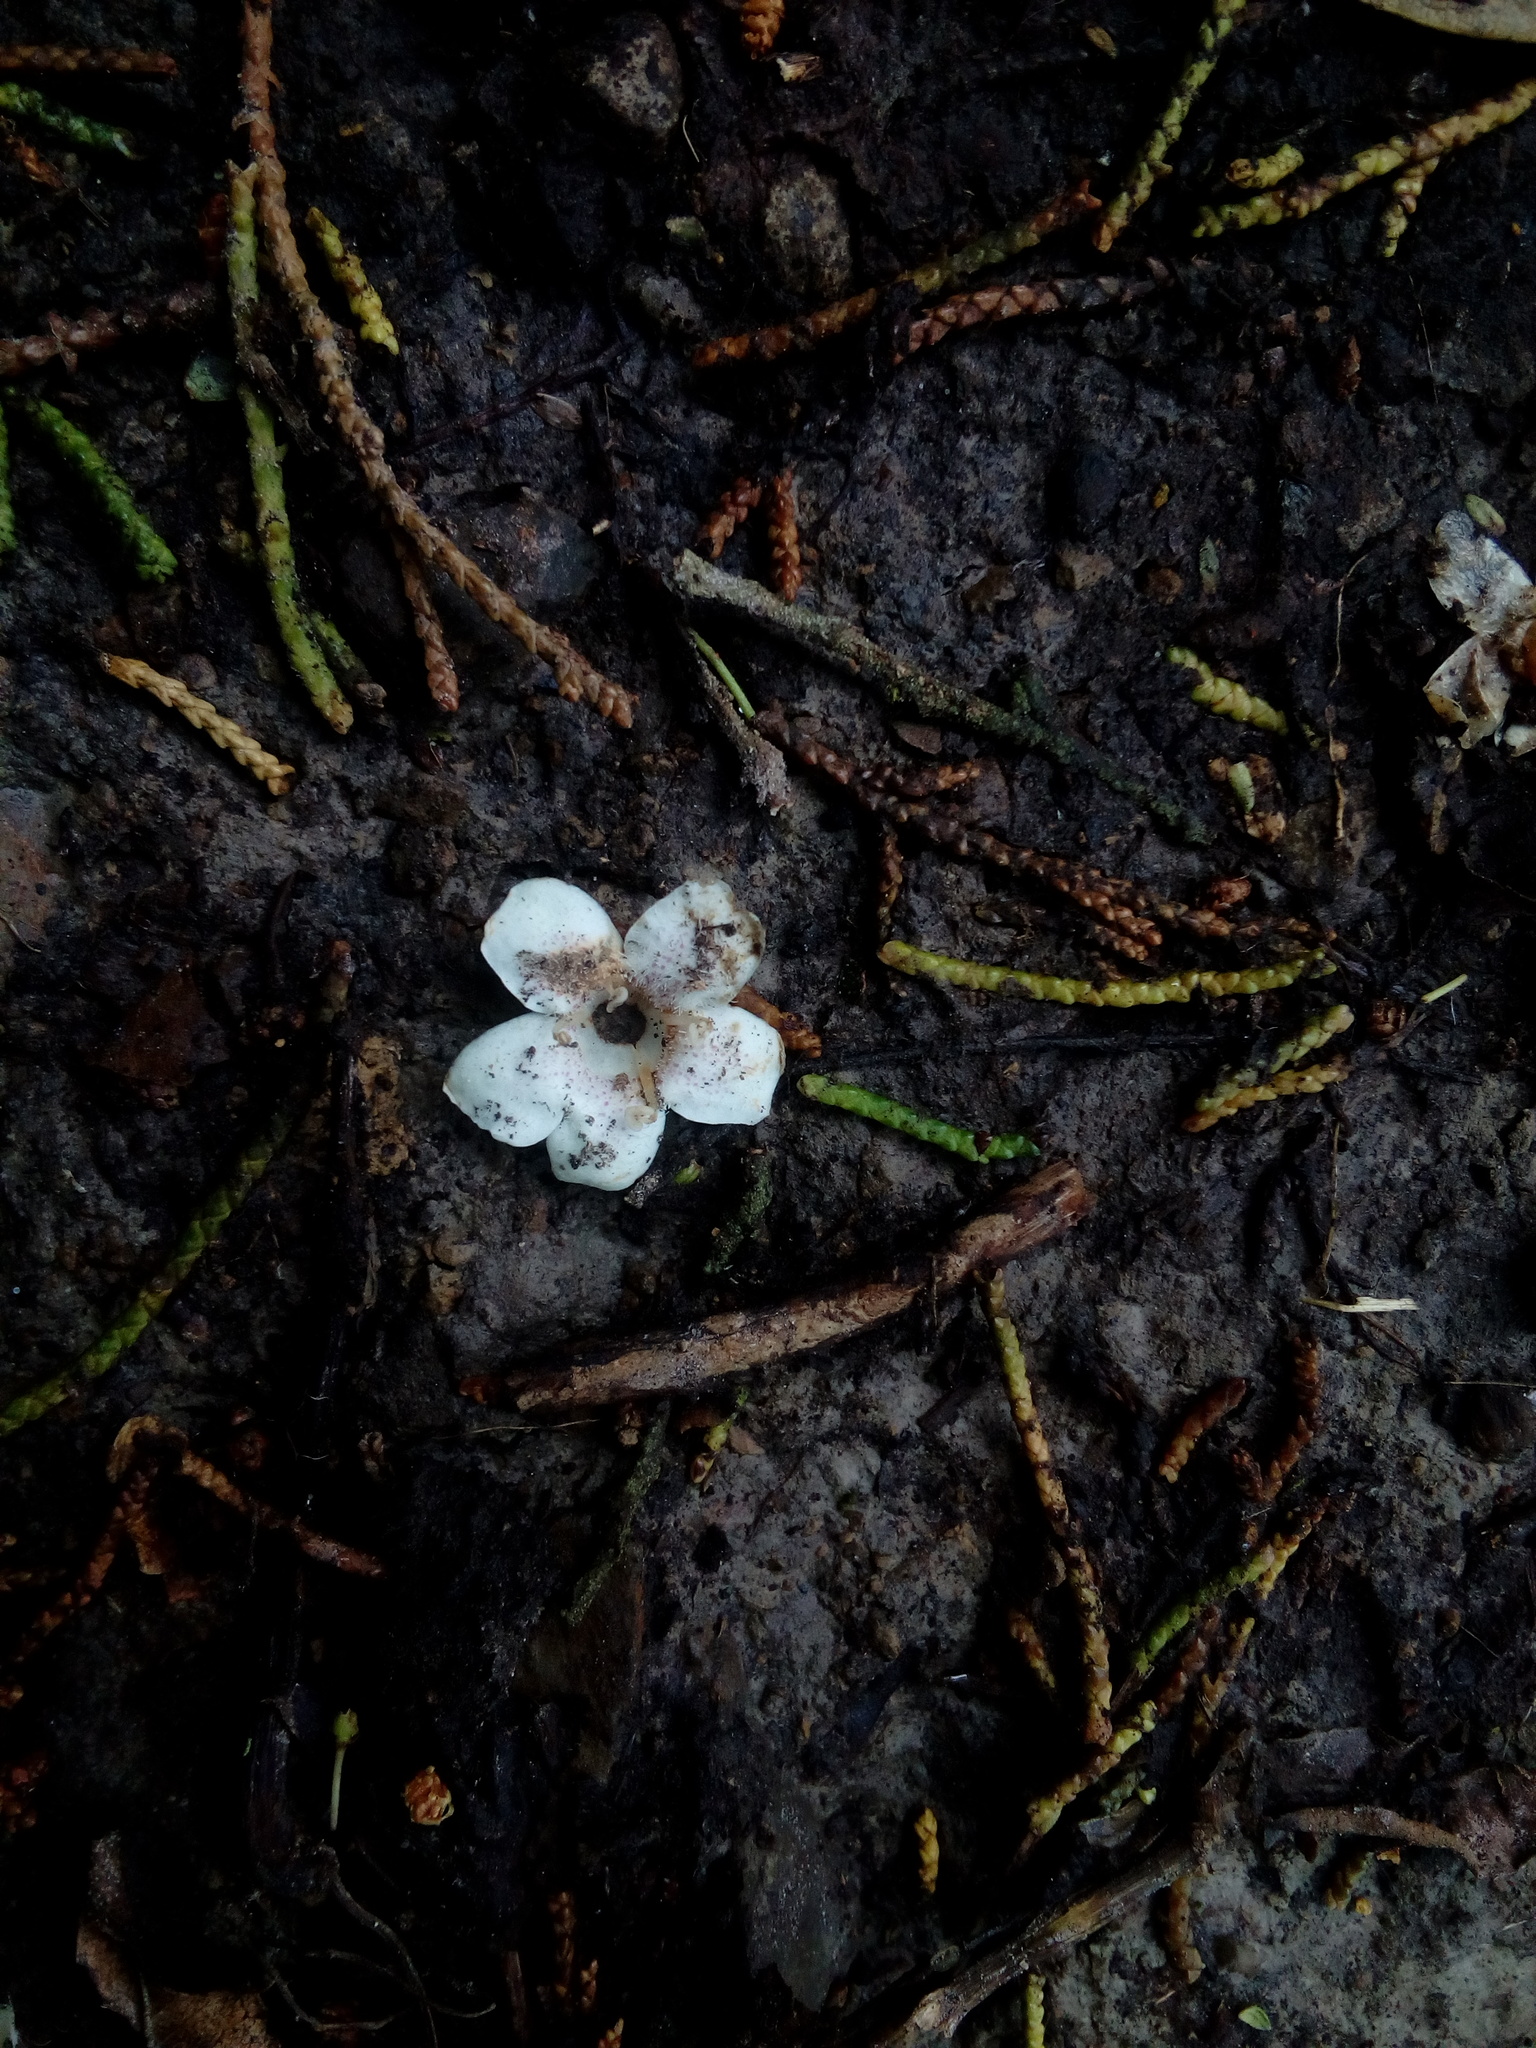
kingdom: Plantae
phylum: Tracheophyta
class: Magnoliopsida
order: Lamiales
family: Scrophulariaceae
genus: Myoporum
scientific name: Myoporum laetum
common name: Ngaio tree
